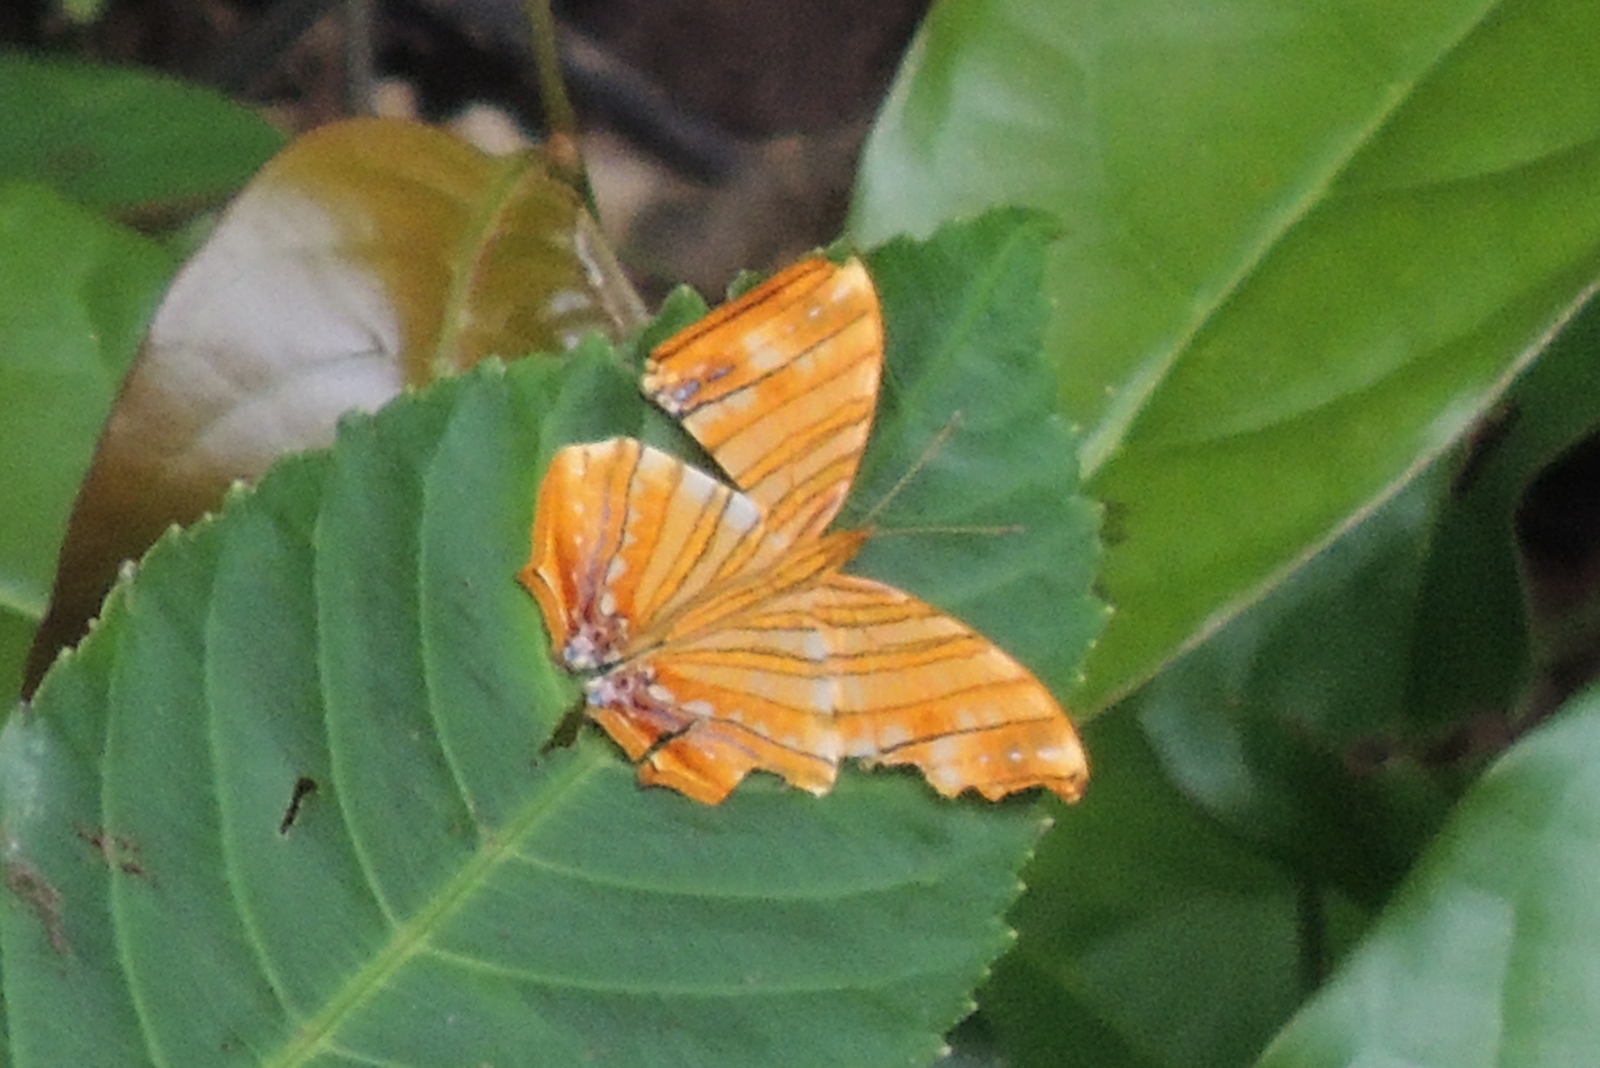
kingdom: Animalia
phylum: Arthropoda
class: Insecta
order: Lepidoptera
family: Nymphalidae
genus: Chersonesia
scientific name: Chersonesia risa
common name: Common maplet
